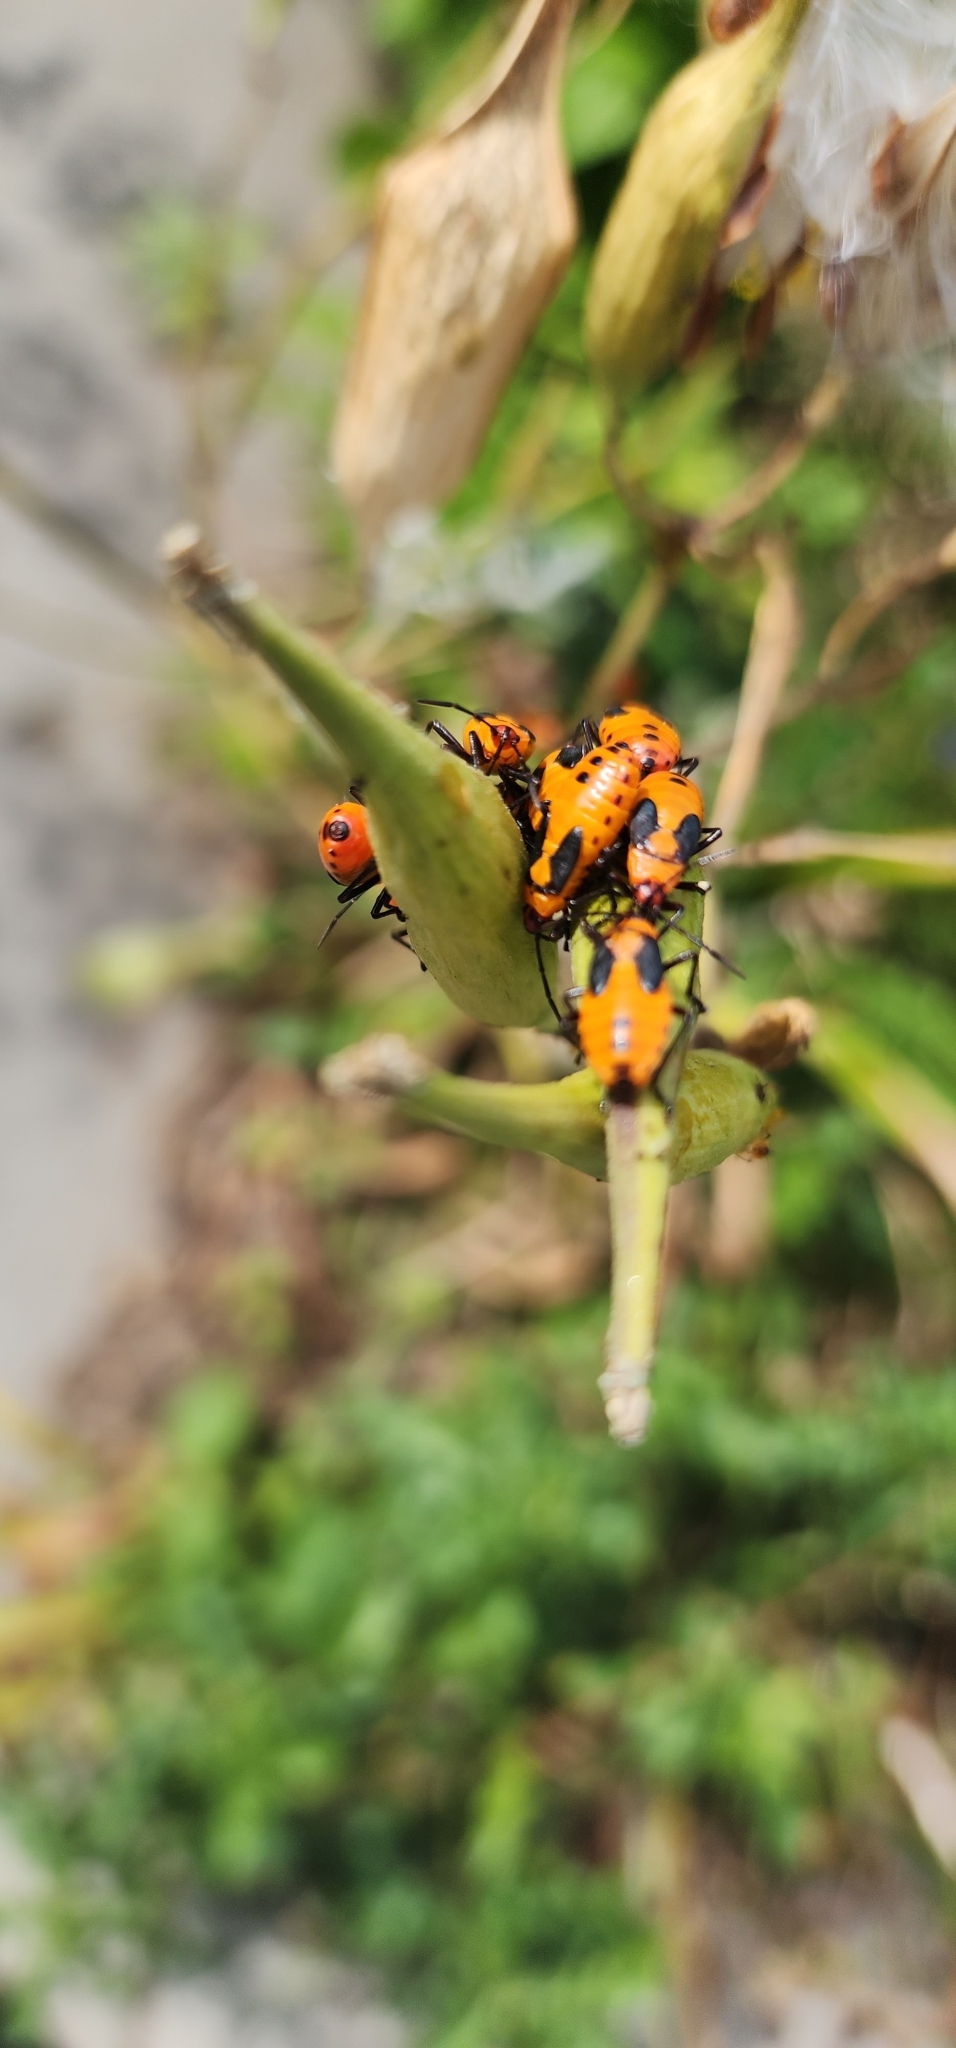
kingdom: Animalia
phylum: Arthropoda
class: Insecta
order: Hemiptera
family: Lygaeidae
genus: Oncopeltus
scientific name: Oncopeltus fasciatus
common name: Large milkweed bug
